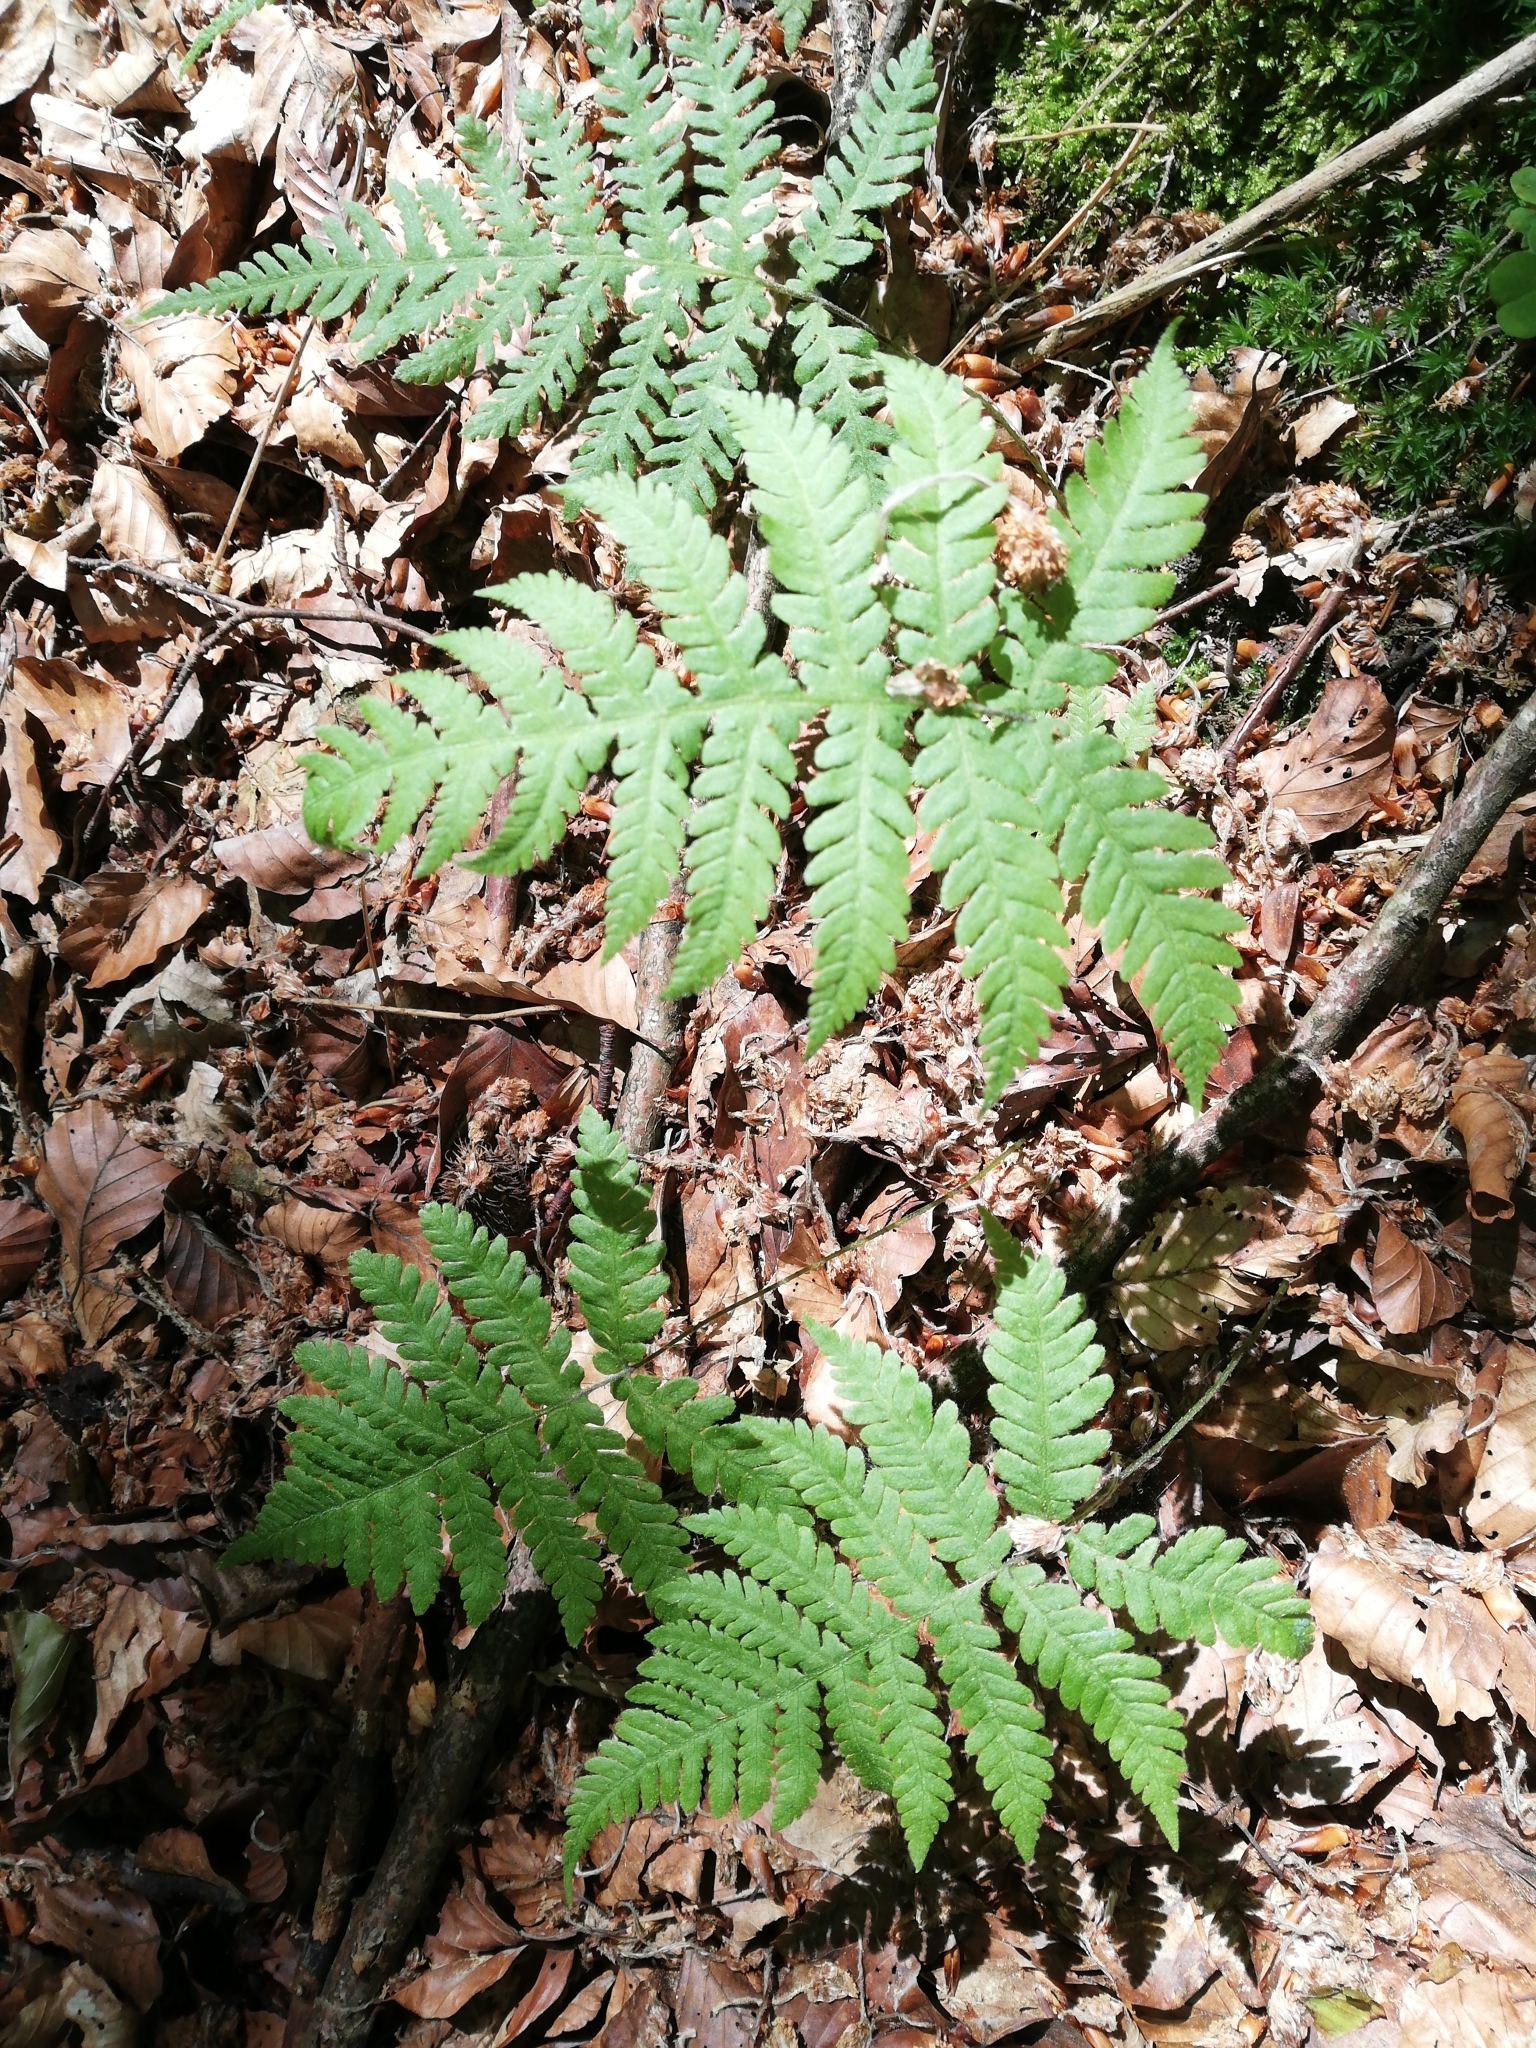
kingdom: Plantae
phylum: Tracheophyta
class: Polypodiopsida
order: Polypodiales
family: Thelypteridaceae
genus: Phegopteris
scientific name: Phegopteris connectilis
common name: Beech fern
